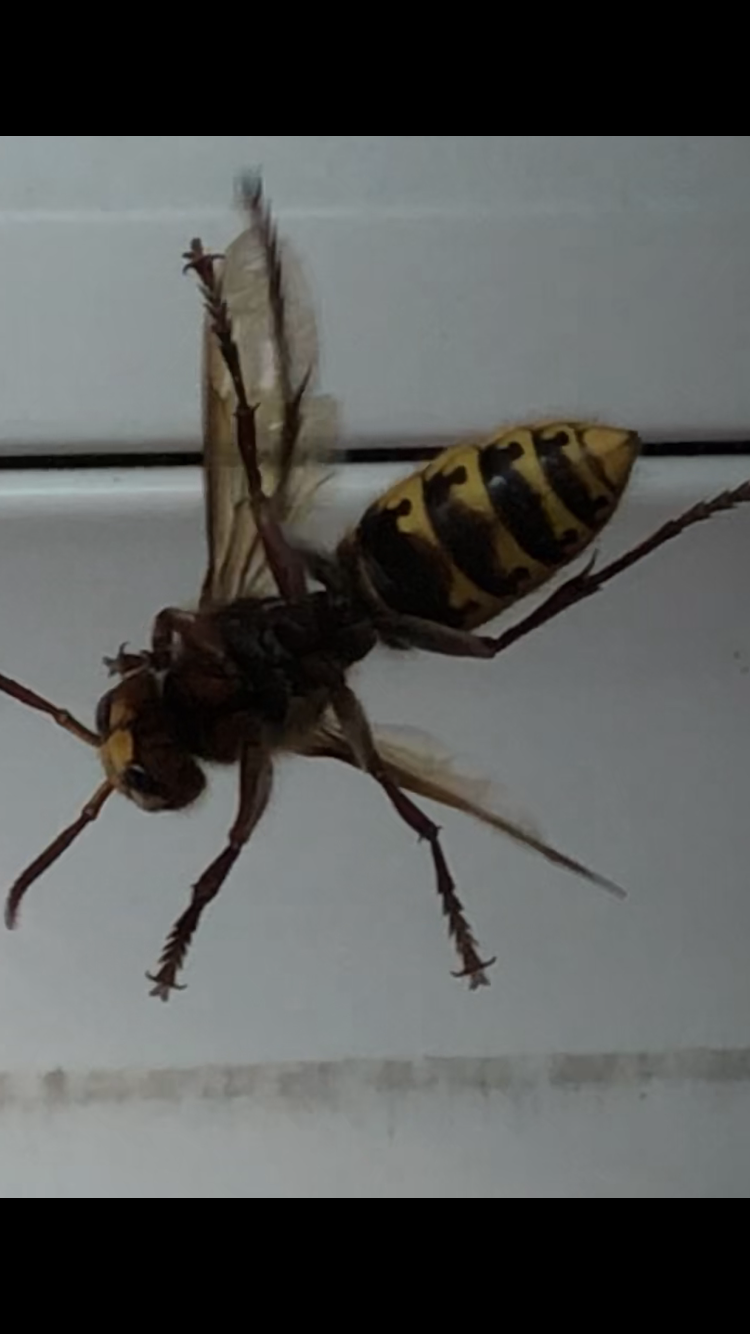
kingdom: Animalia
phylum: Arthropoda
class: Insecta
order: Hymenoptera
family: Vespidae
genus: Vespa
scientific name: Vespa crabro
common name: Hornet
